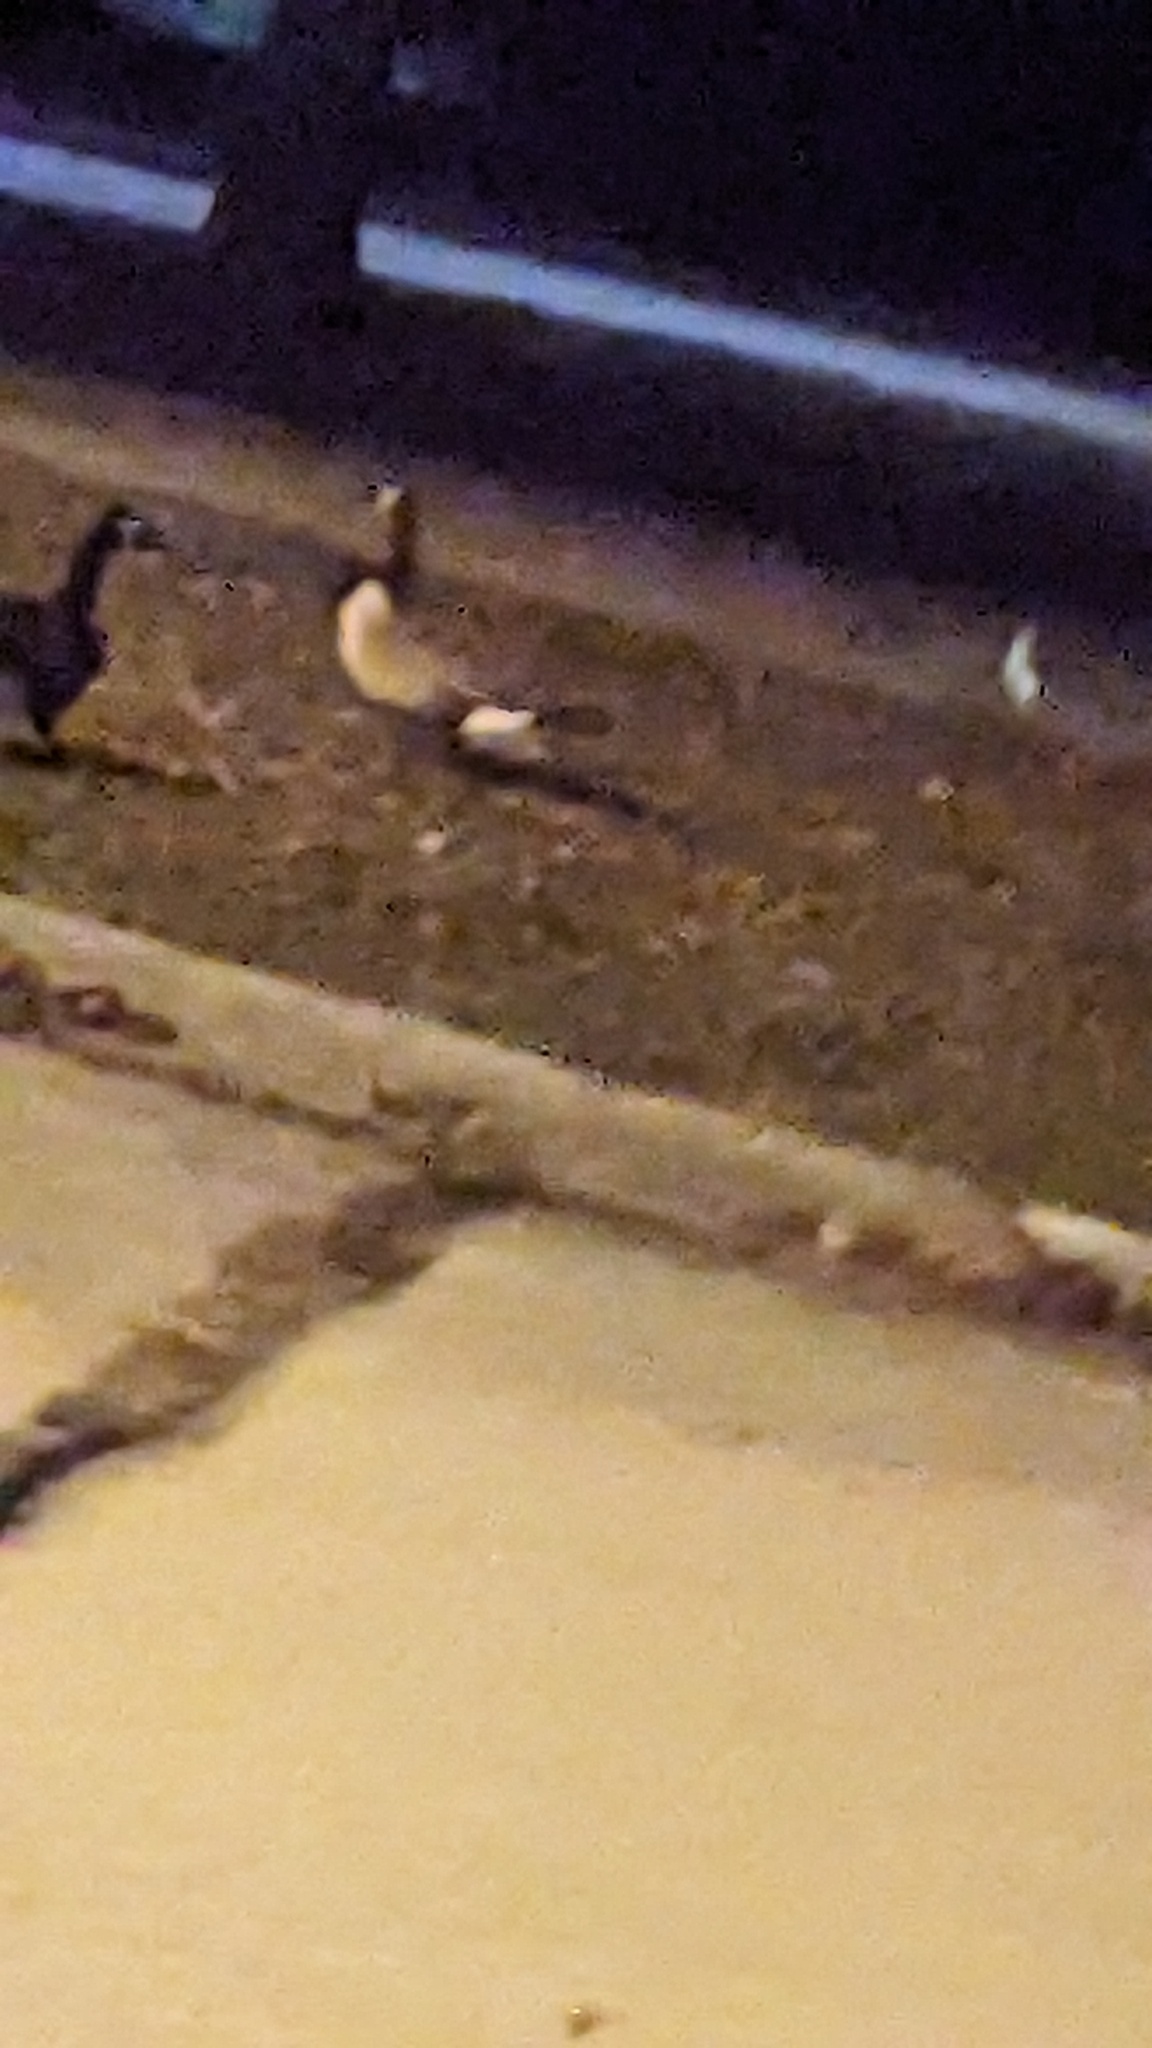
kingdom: Animalia
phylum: Chordata
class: Aves
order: Anseriformes
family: Anatidae
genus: Branta
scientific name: Branta canadensis
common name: Canada goose
